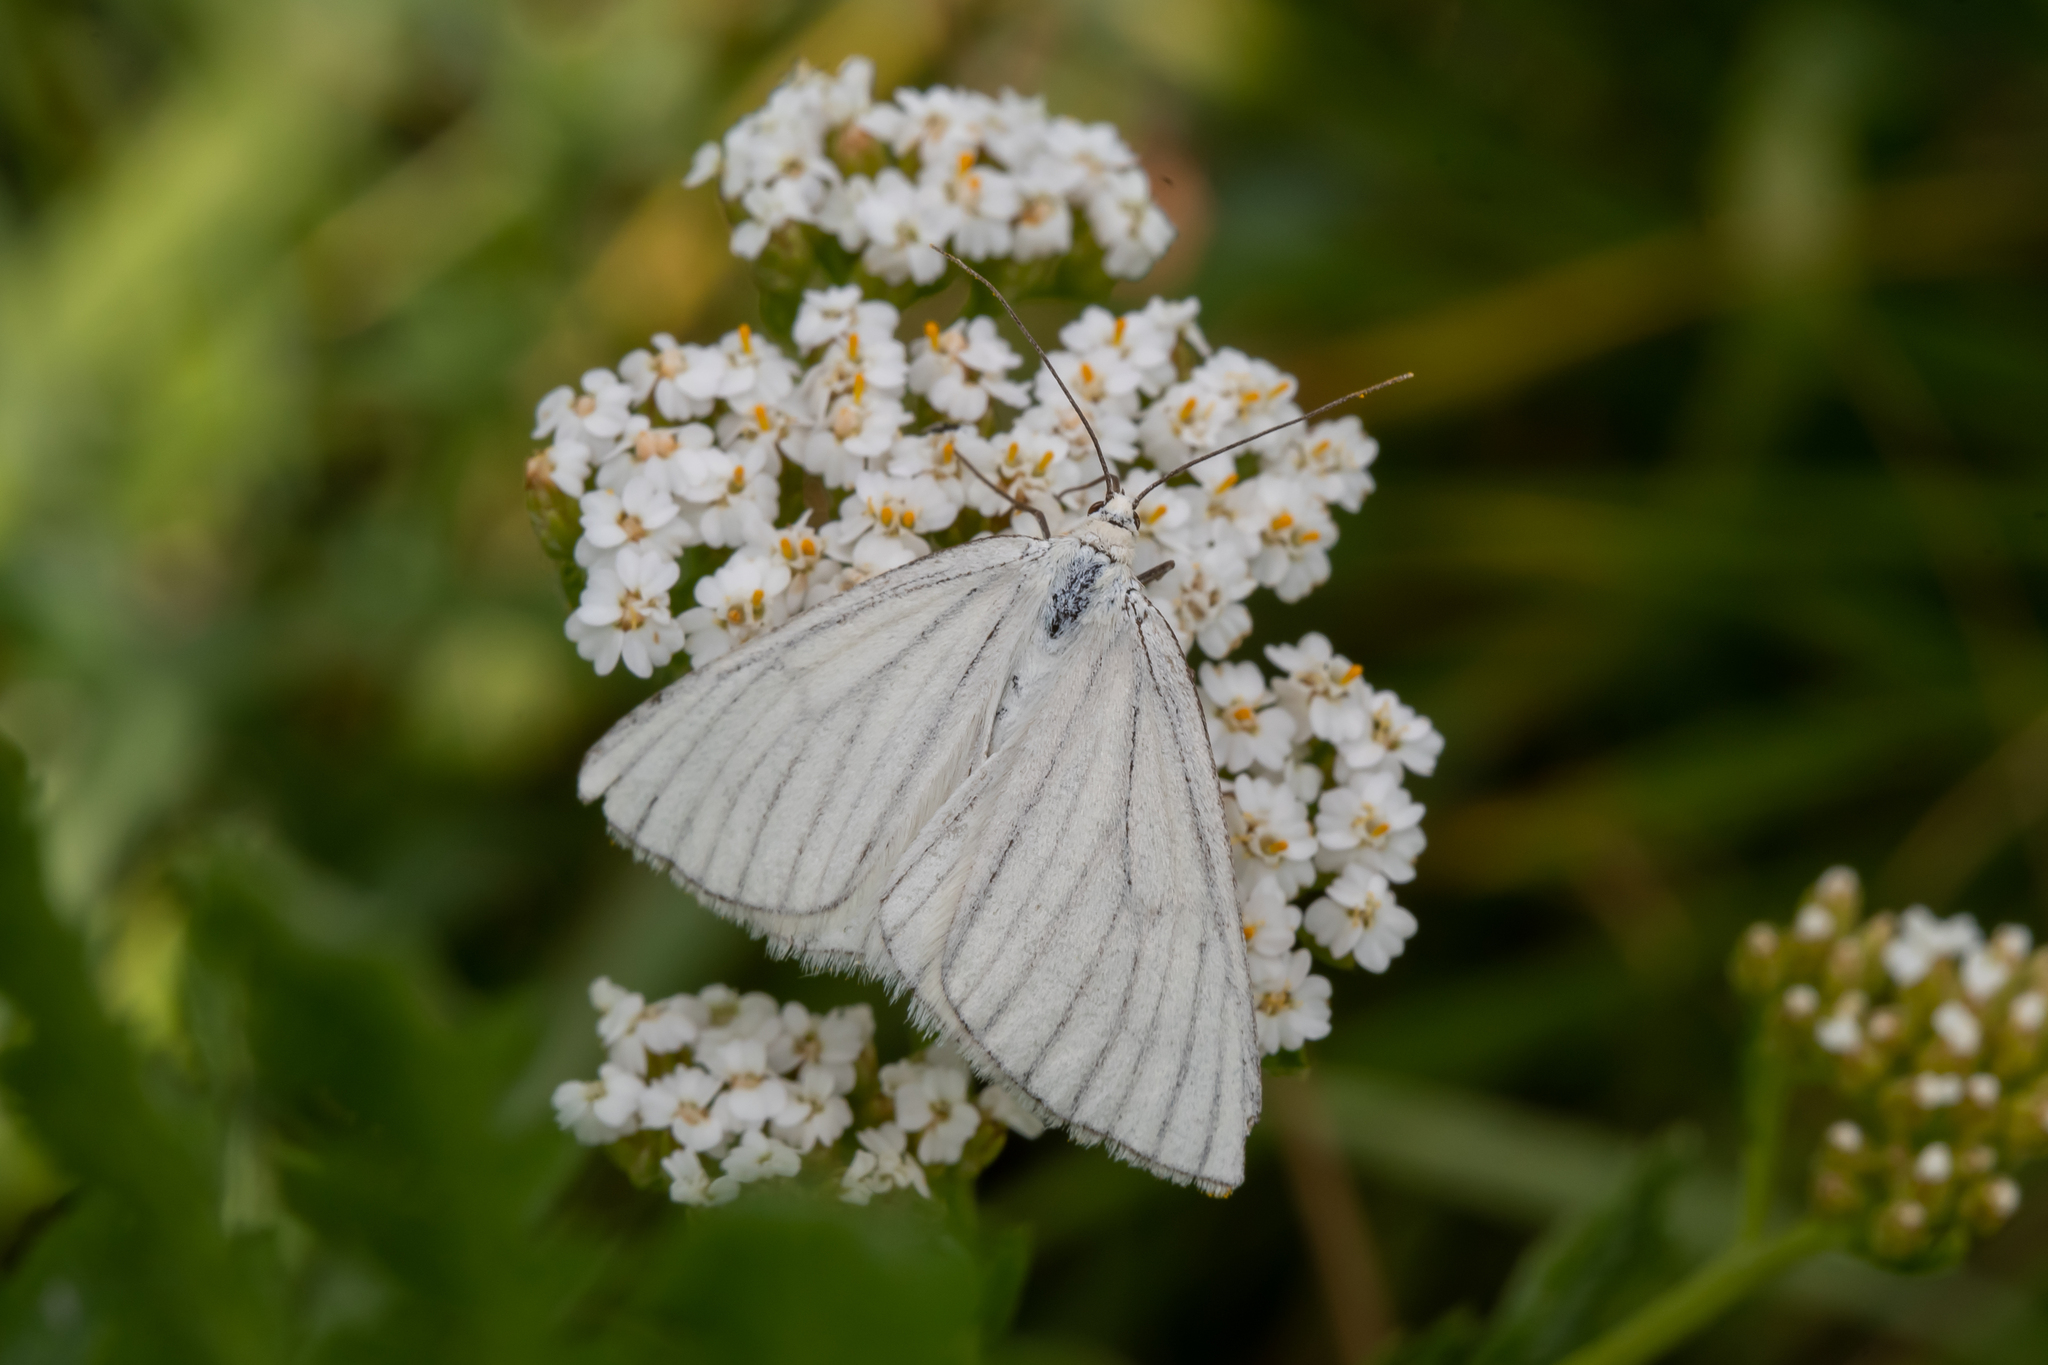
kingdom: Animalia
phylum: Arthropoda
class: Insecta
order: Lepidoptera
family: Geometridae
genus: Siona
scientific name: Siona lineata
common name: Black-veined moth
